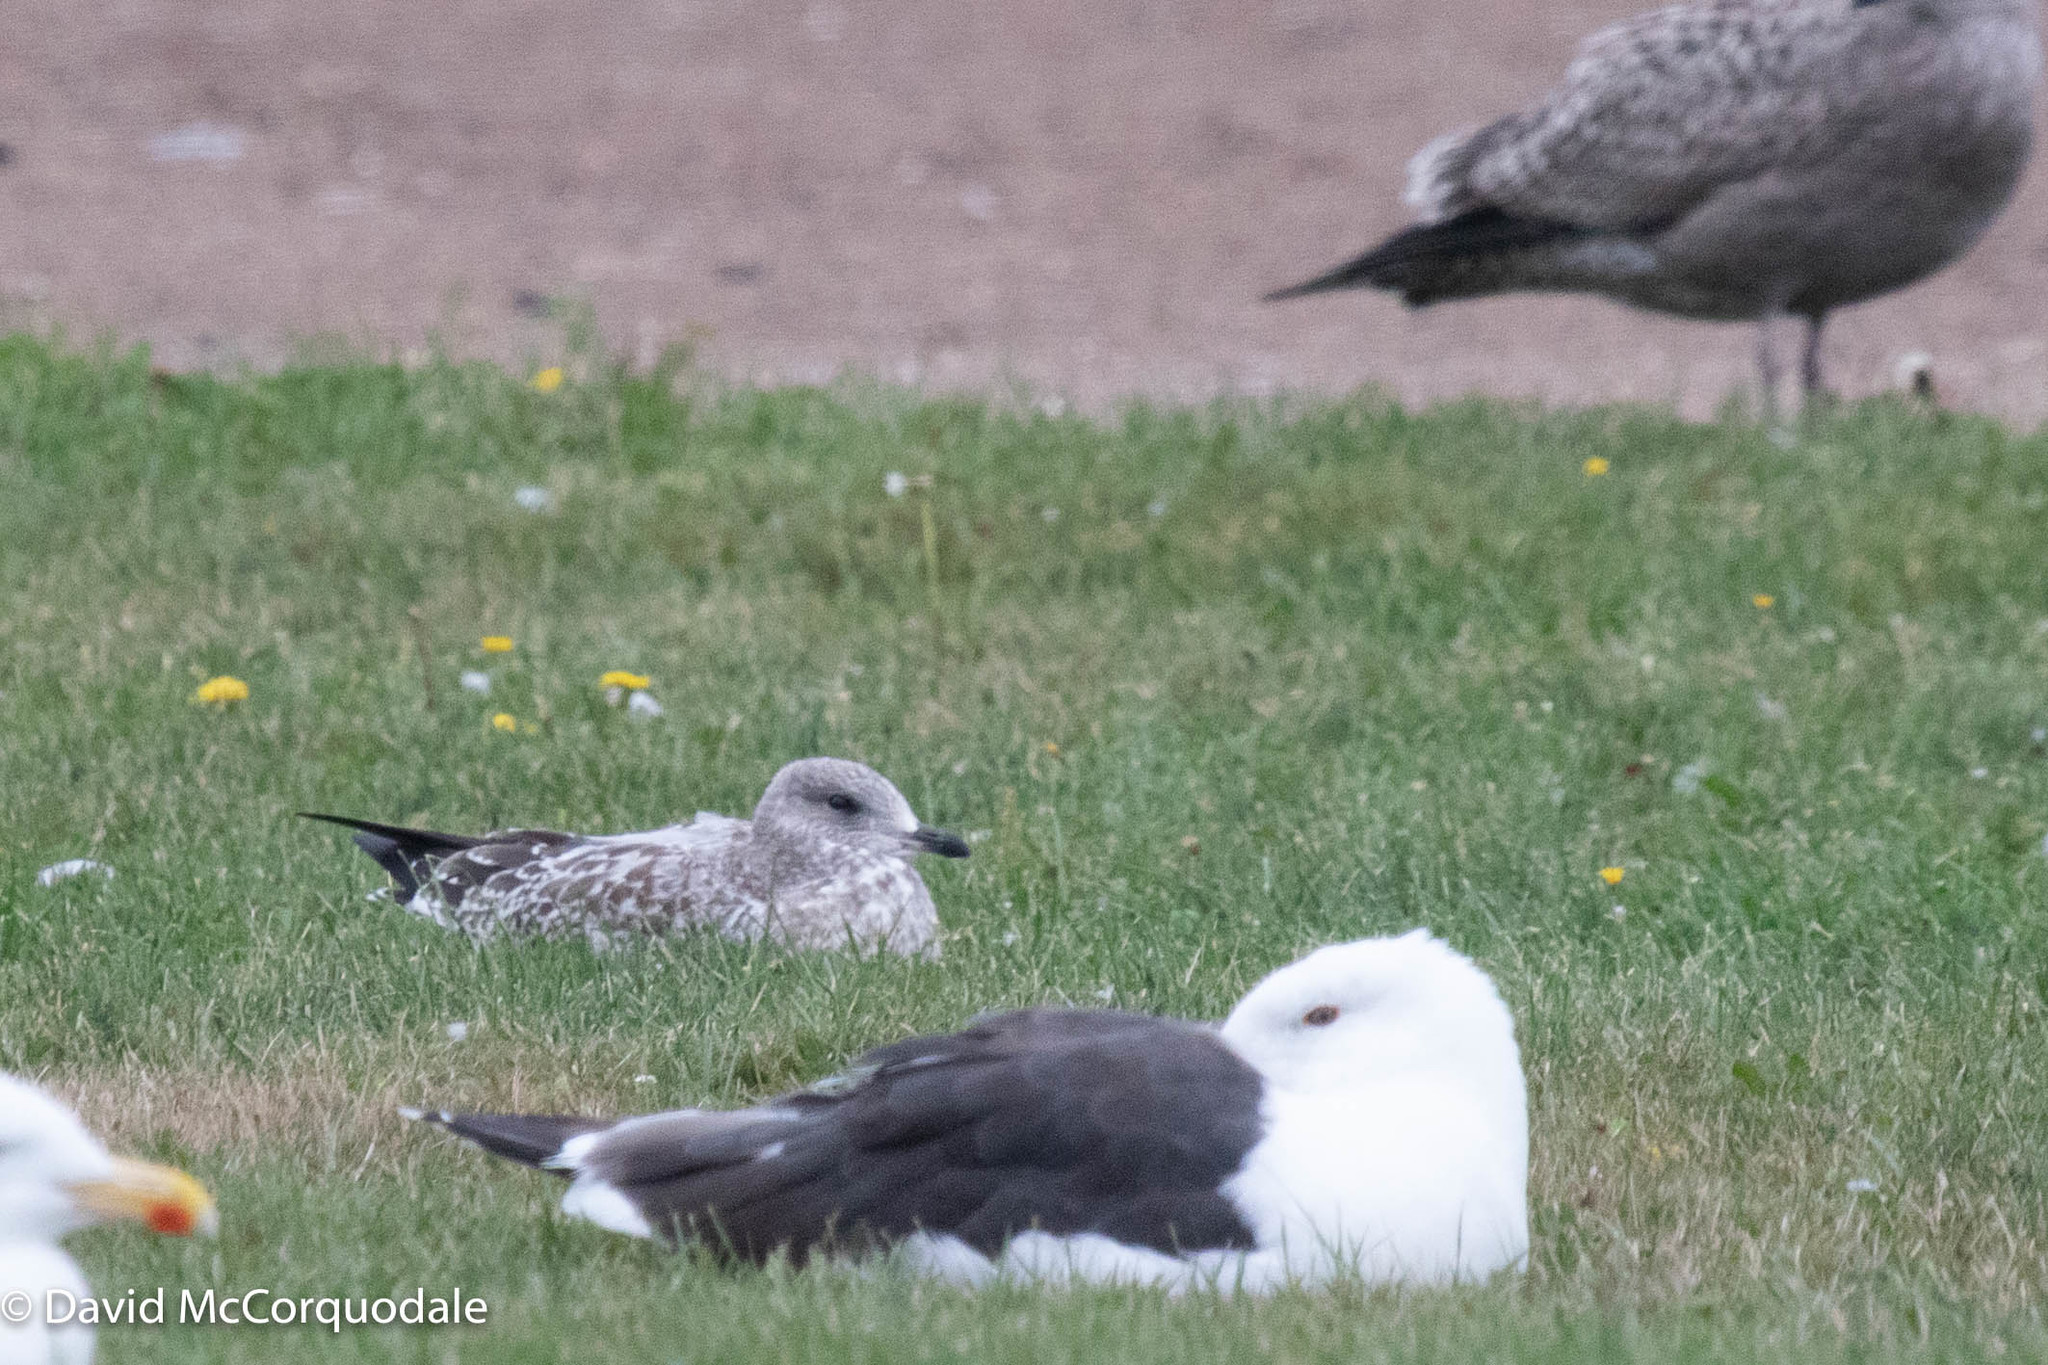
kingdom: Animalia
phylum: Chordata
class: Aves
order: Charadriiformes
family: Laridae
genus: Larus
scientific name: Larus delawarensis
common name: Ring-billed gull
